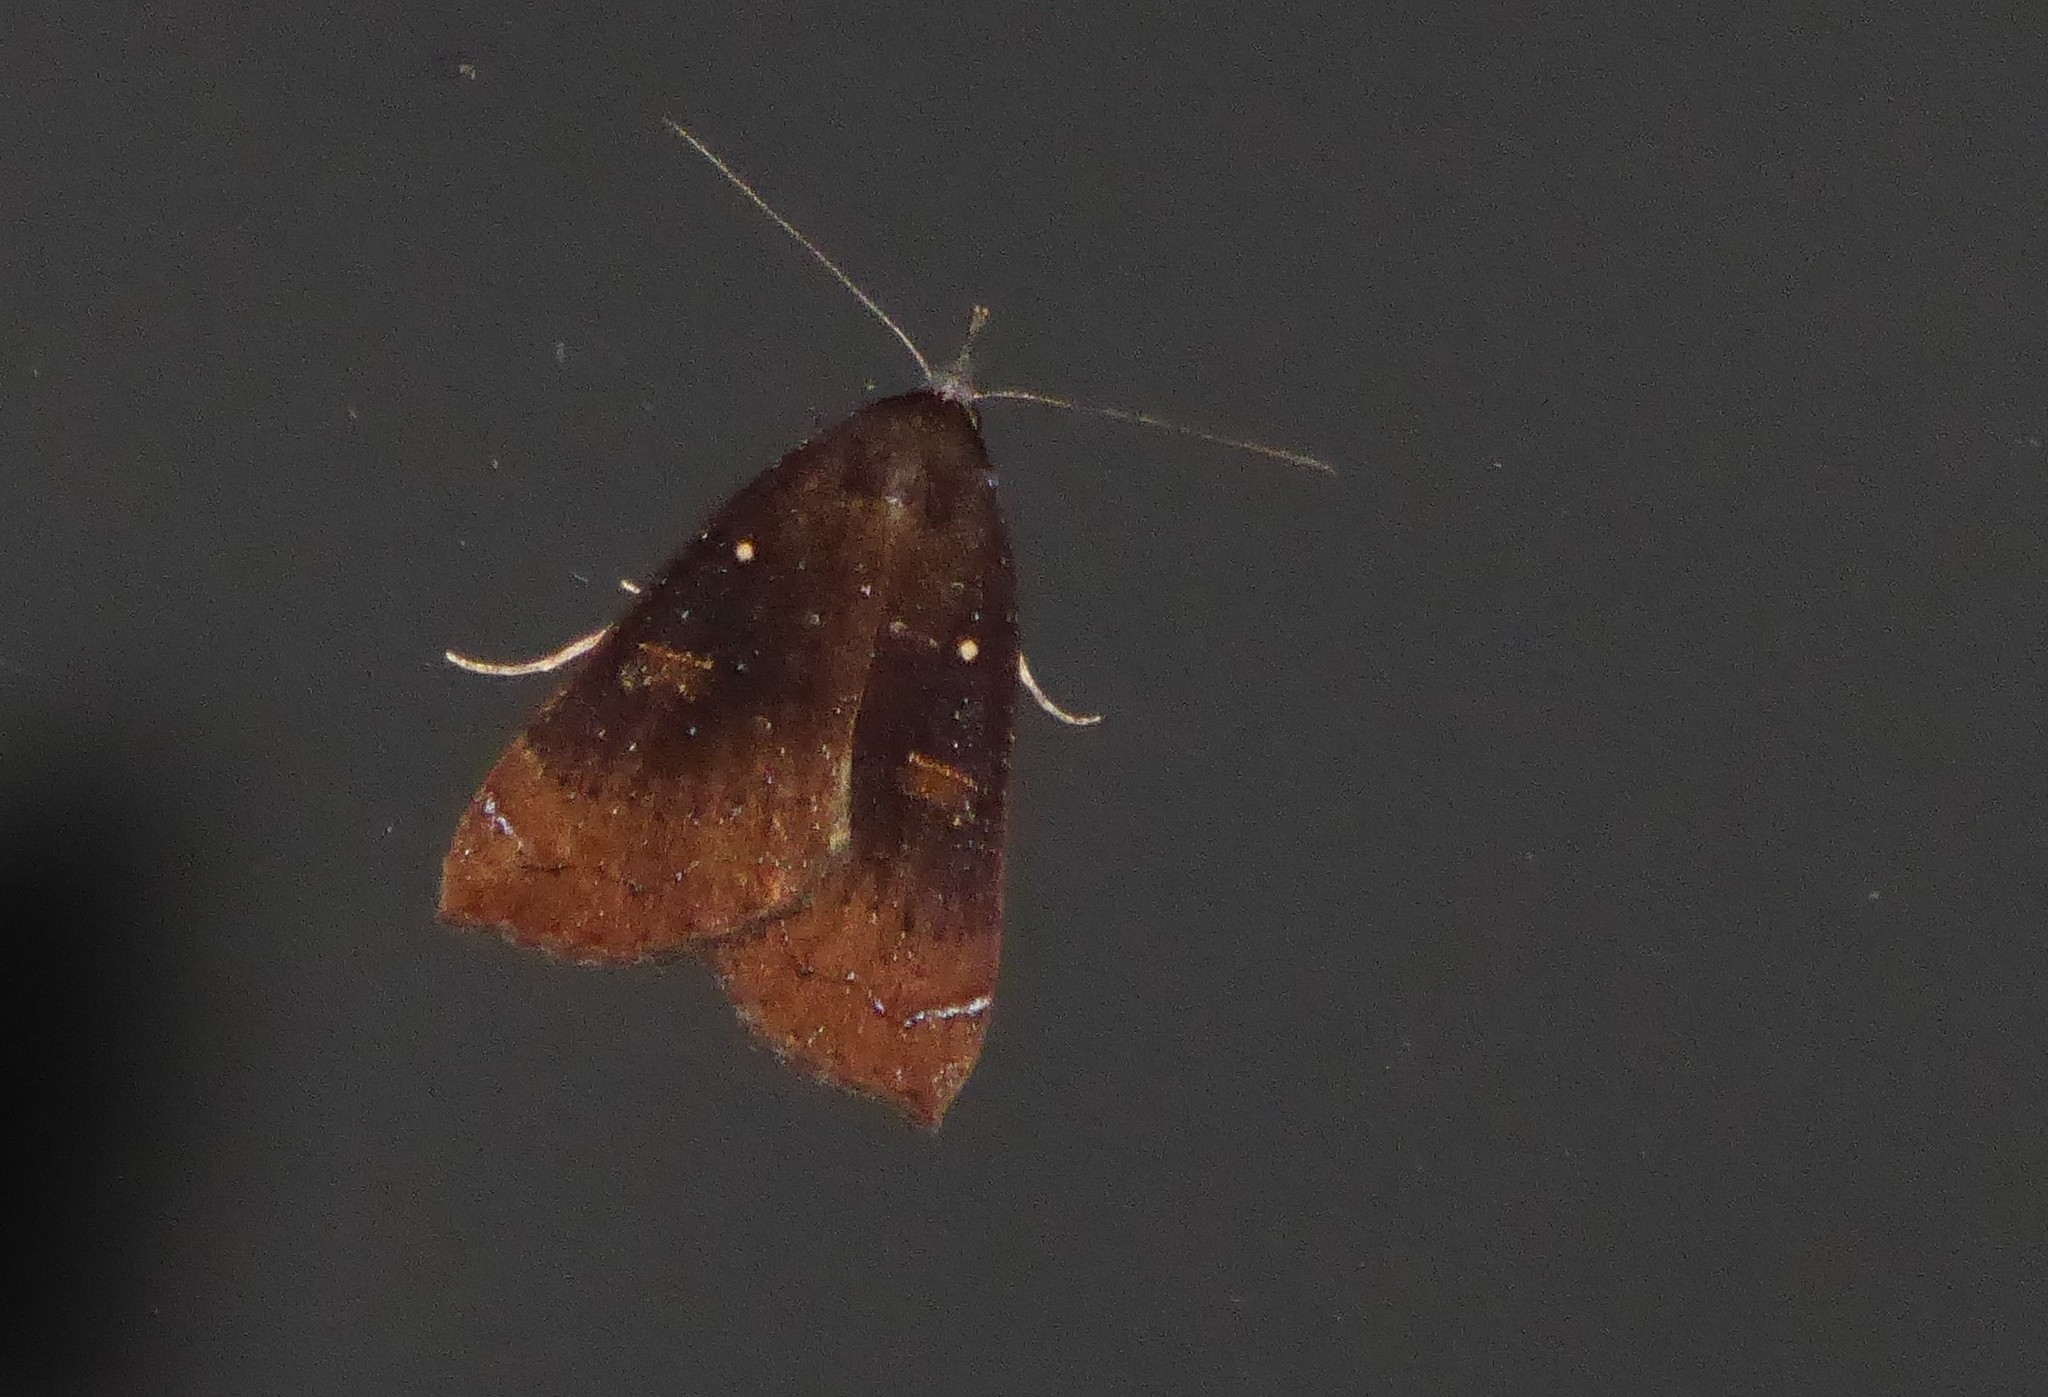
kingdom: Animalia
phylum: Arthropoda
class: Insecta
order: Lepidoptera
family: Erebidae
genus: Rhapsa
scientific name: Rhapsa scotosialis
